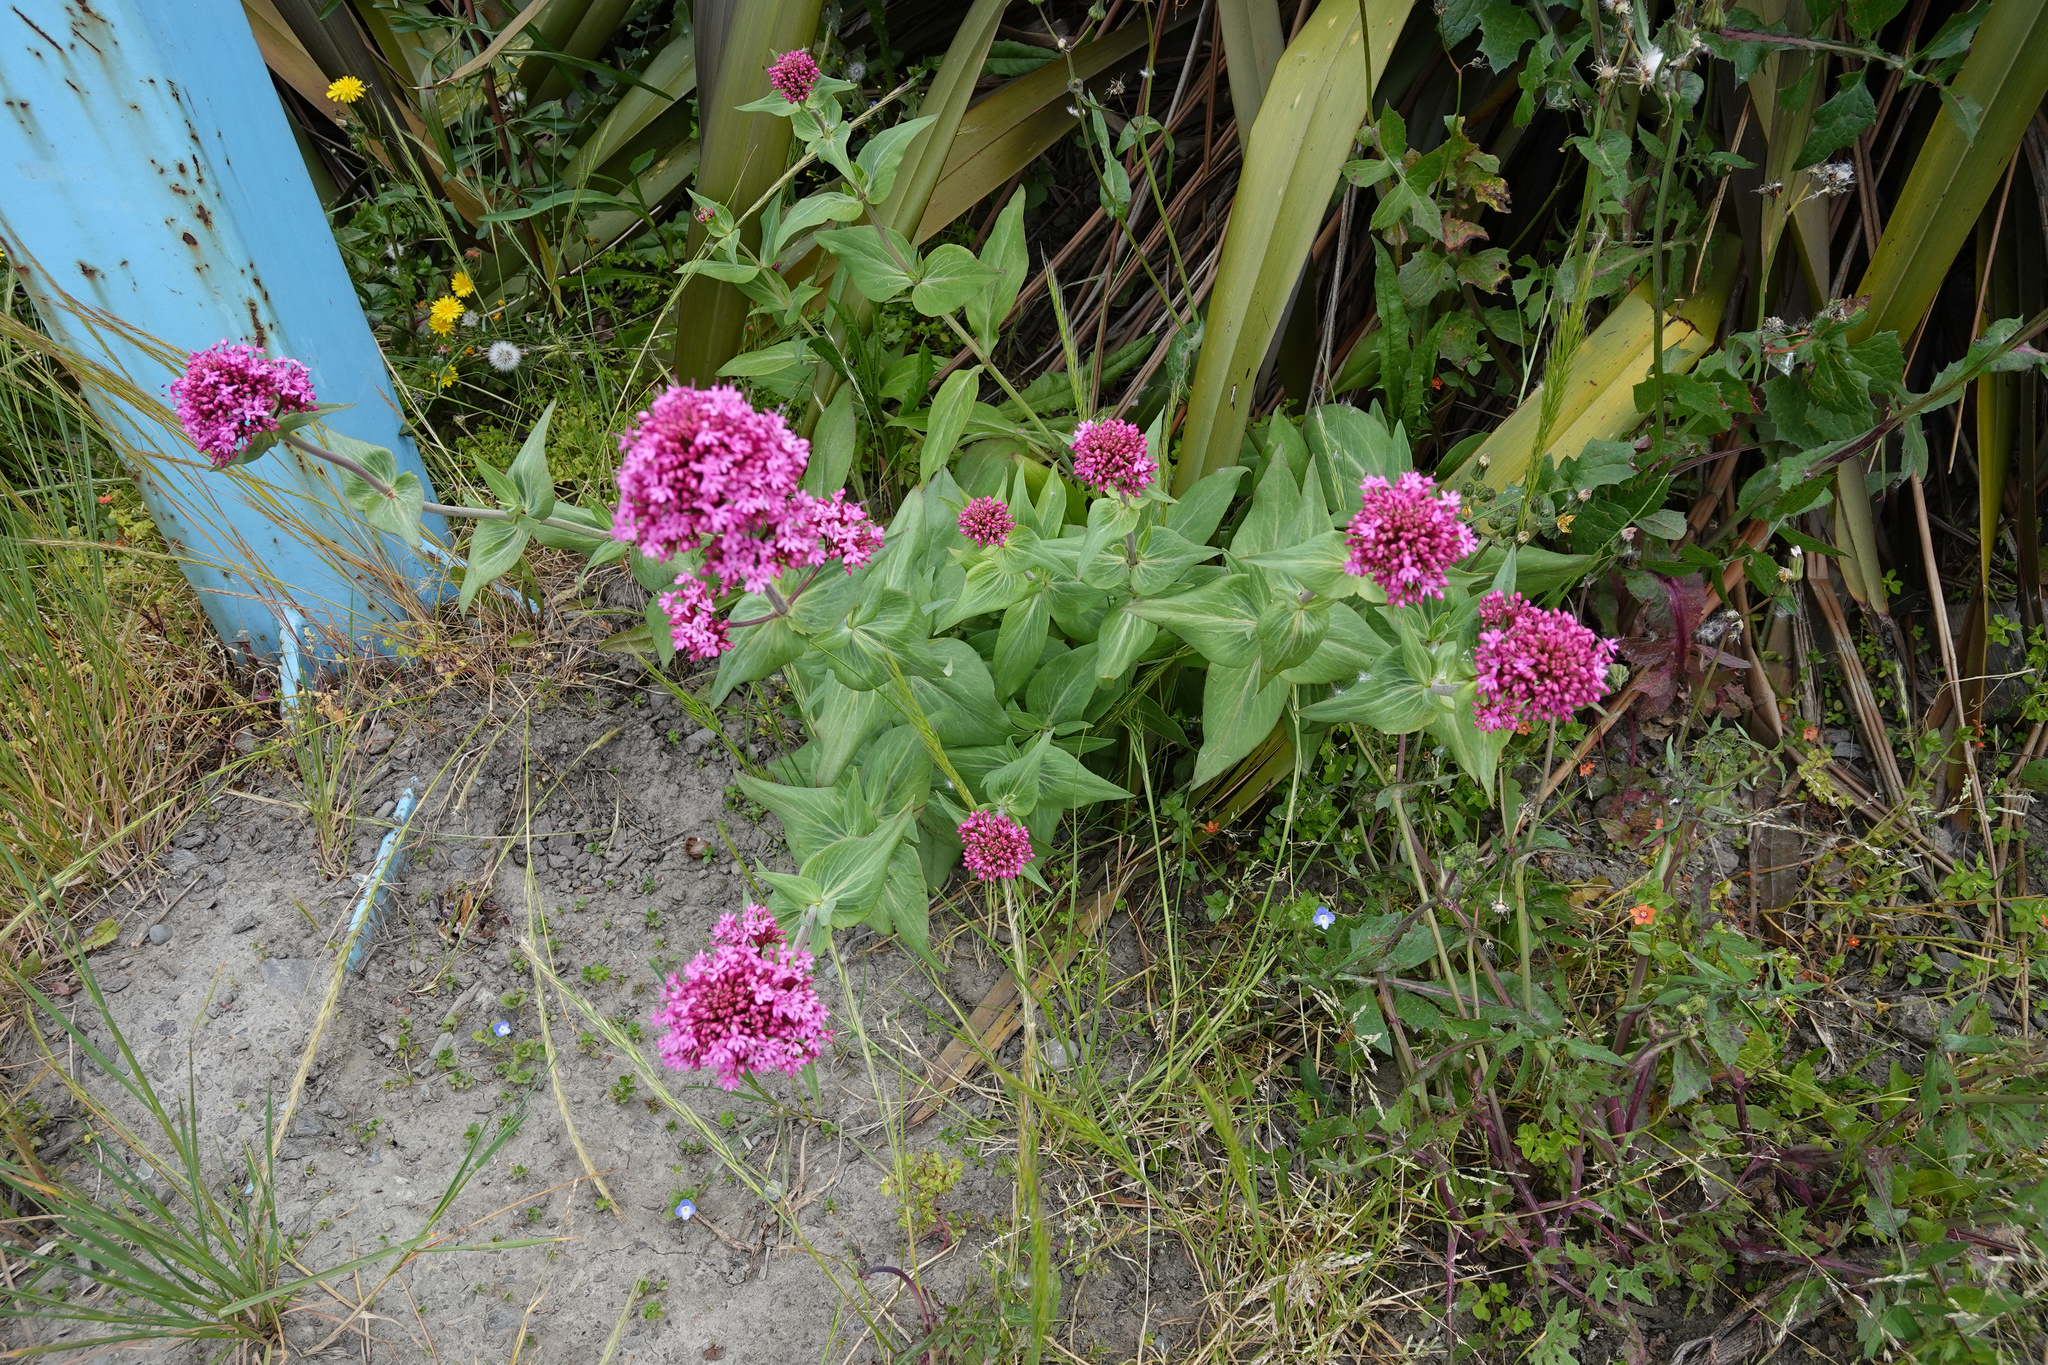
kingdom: Plantae
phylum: Tracheophyta
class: Magnoliopsida
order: Dipsacales
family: Caprifoliaceae
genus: Centranthus
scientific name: Centranthus ruber
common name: Red valerian
